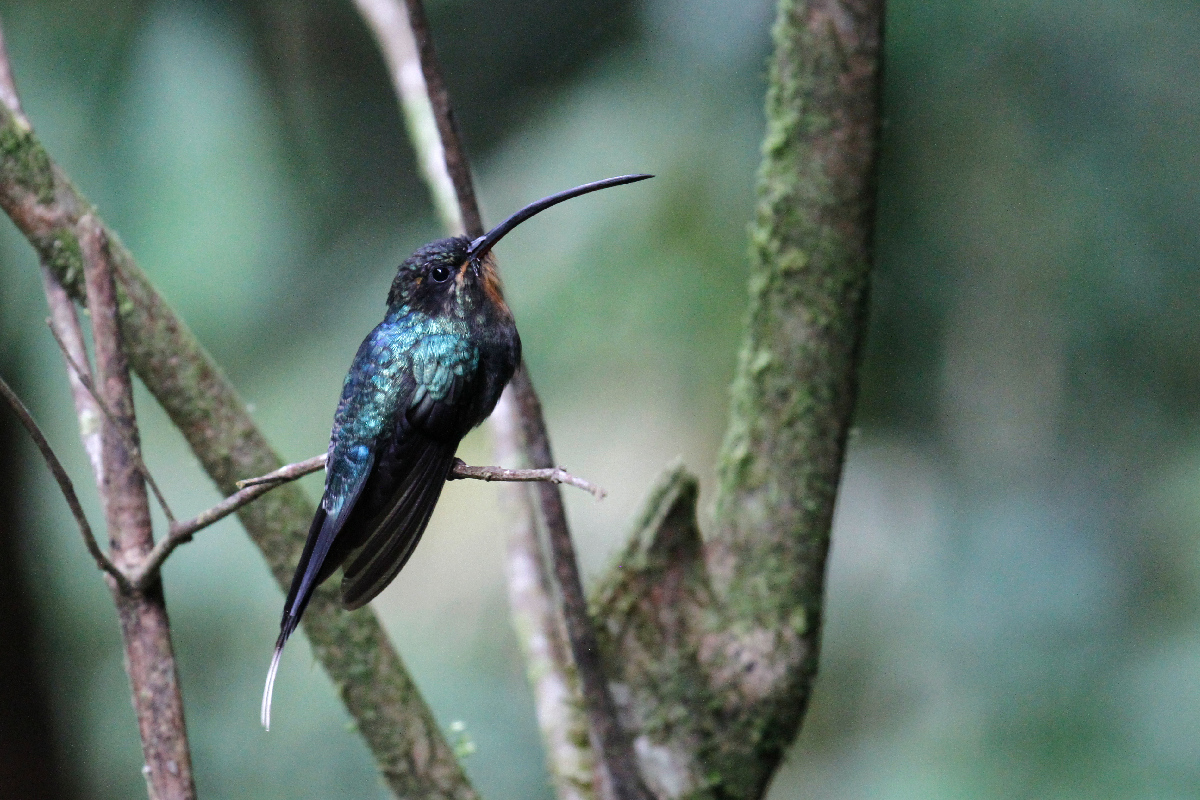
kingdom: Animalia
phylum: Chordata
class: Aves
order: Apodiformes
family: Trochilidae
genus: Phaethornis
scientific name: Phaethornis guy
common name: Green hermit
